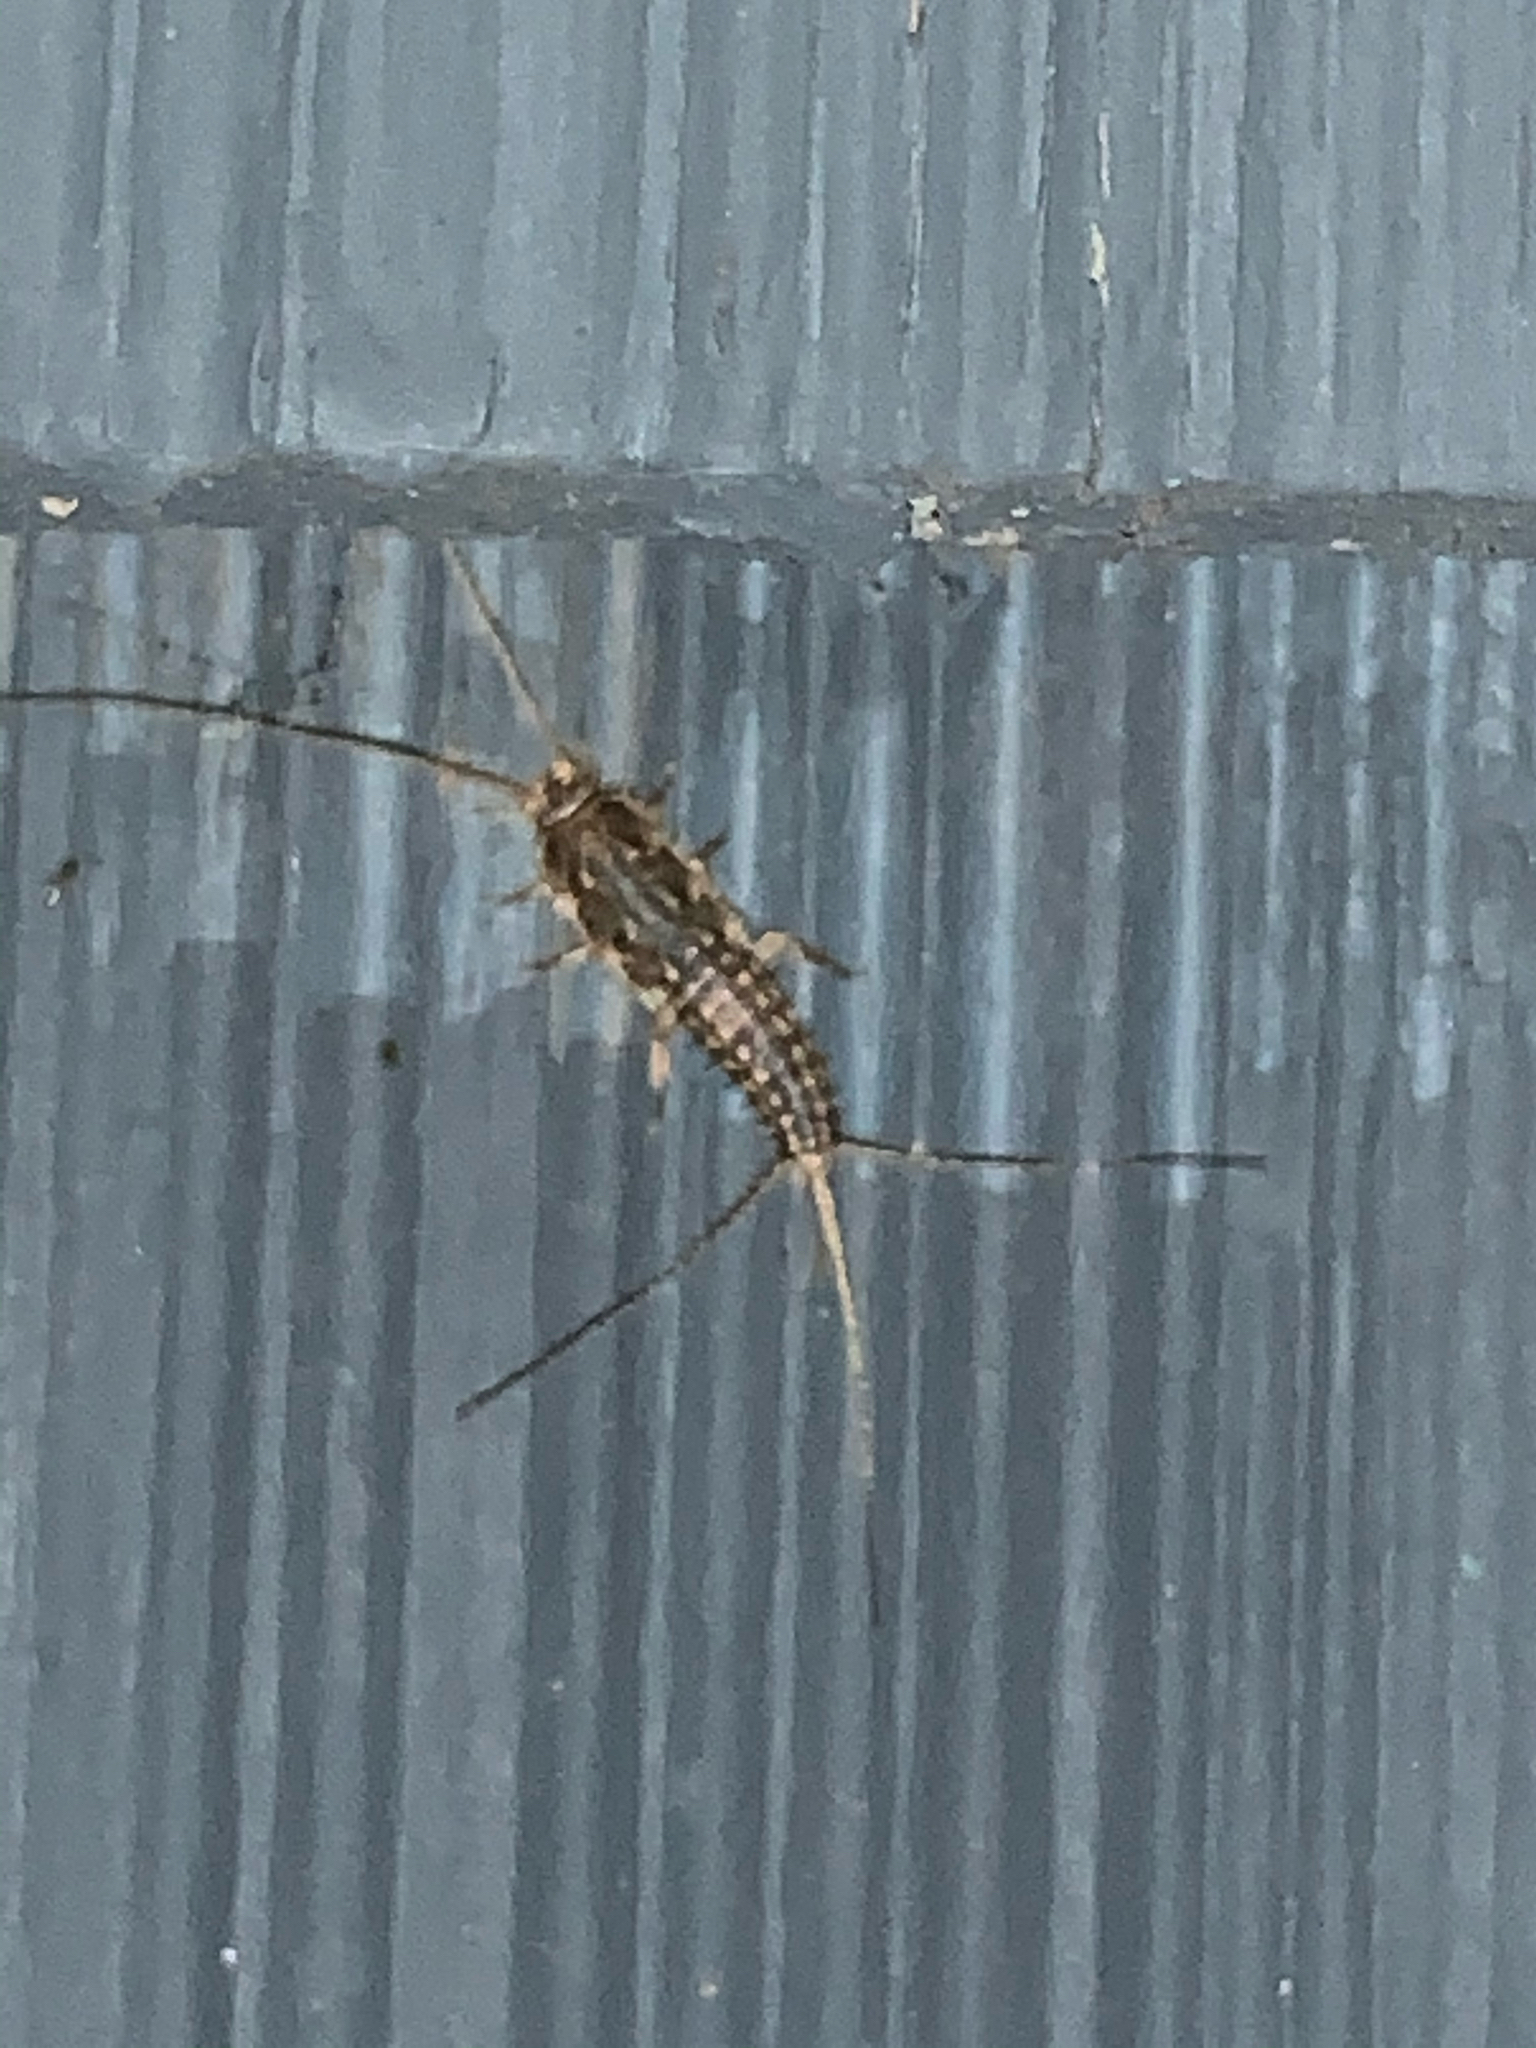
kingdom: Animalia
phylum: Arthropoda
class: Insecta
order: Zygentoma
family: Lepismatidae
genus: Ctenolepisma
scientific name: Ctenolepisma lineata
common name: Four-lined silverfish
